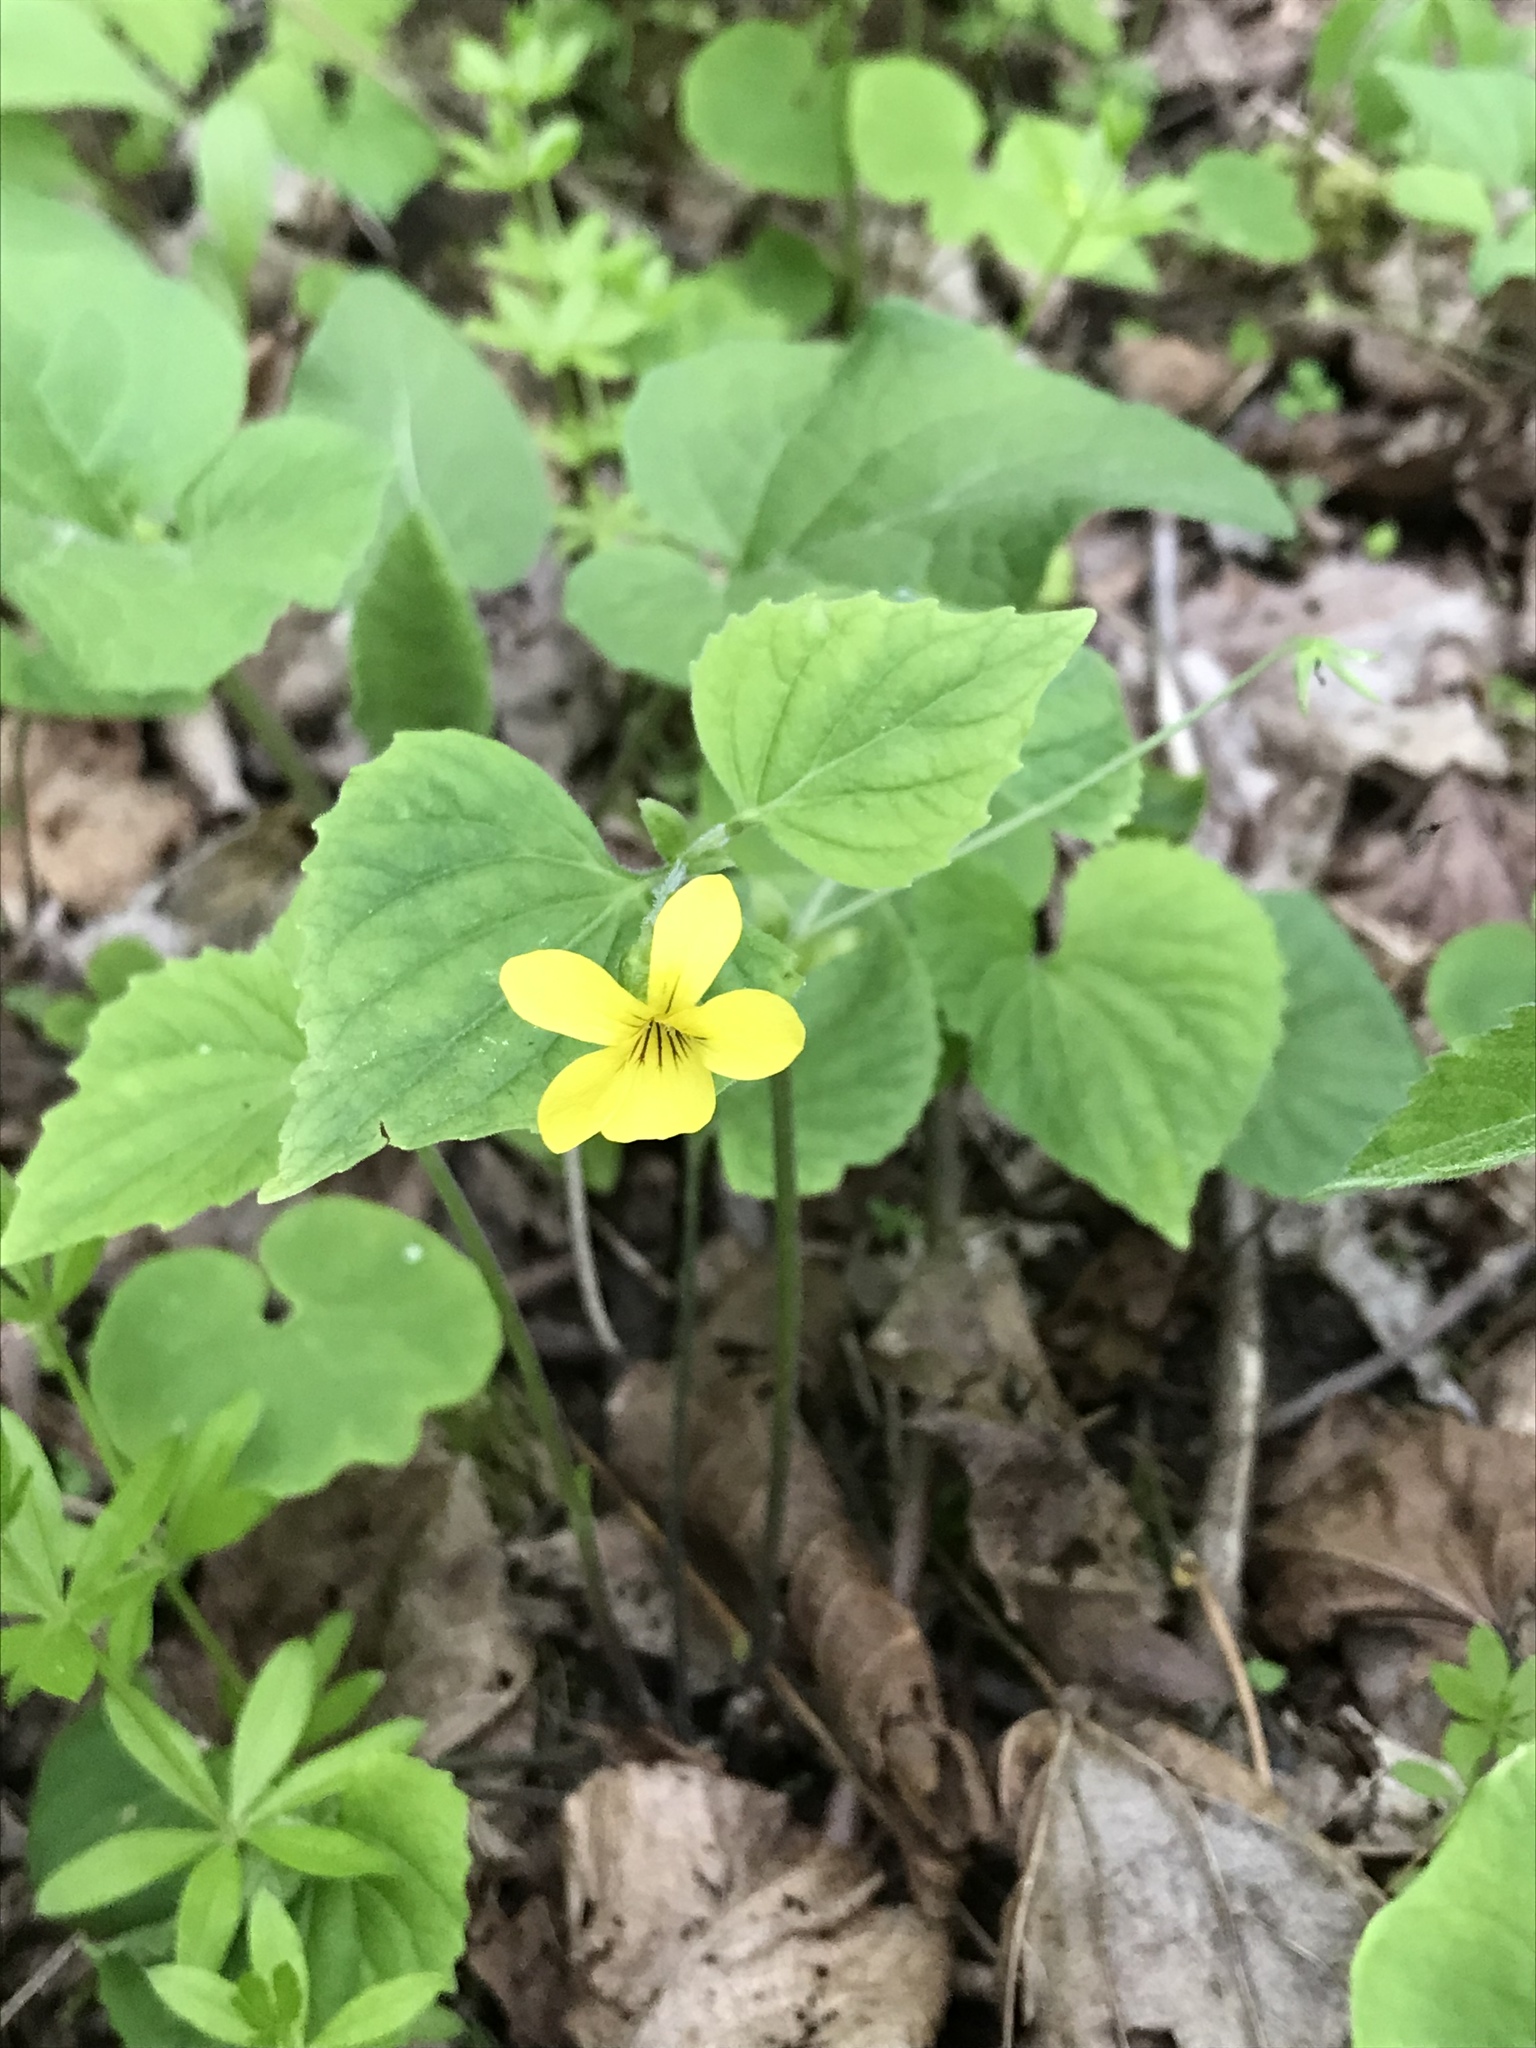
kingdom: Plantae
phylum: Tracheophyta
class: Magnoliopsida
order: Malpighiales
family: Violaceae
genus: Viola
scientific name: Viola eriocarpa
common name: Smooth yellow violet
